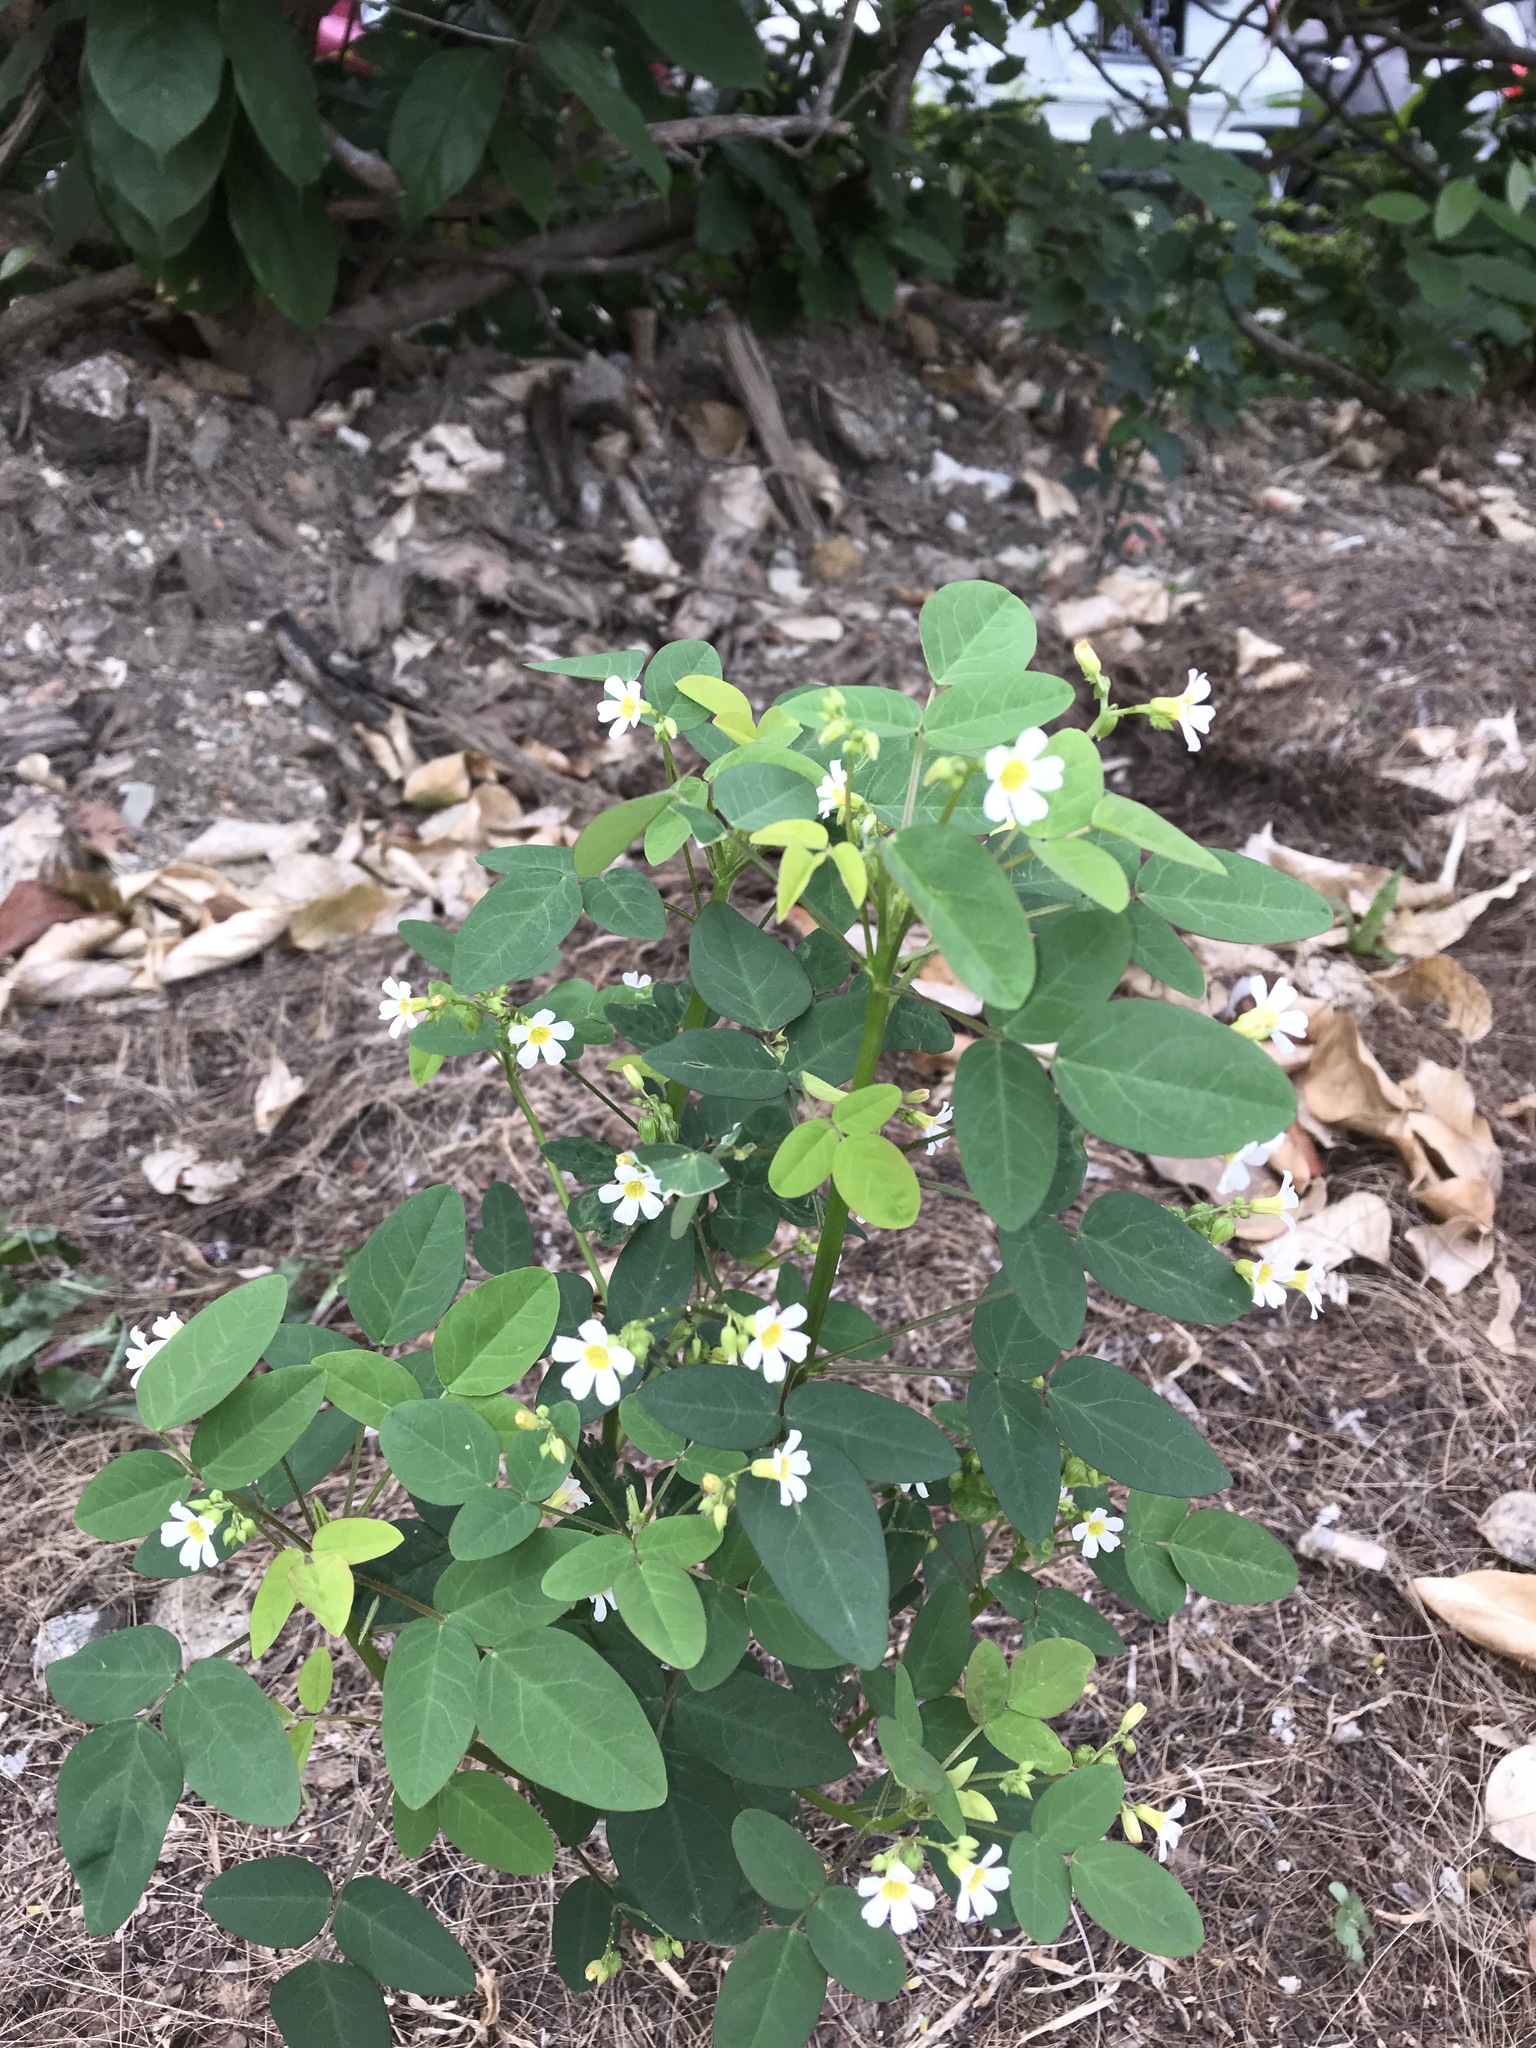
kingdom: Plantae
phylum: Tracheophyta
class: Magnoliopsida
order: Oxalidales
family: Oxalidaceae
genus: Oxalis
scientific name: Oxalis barrelieri
